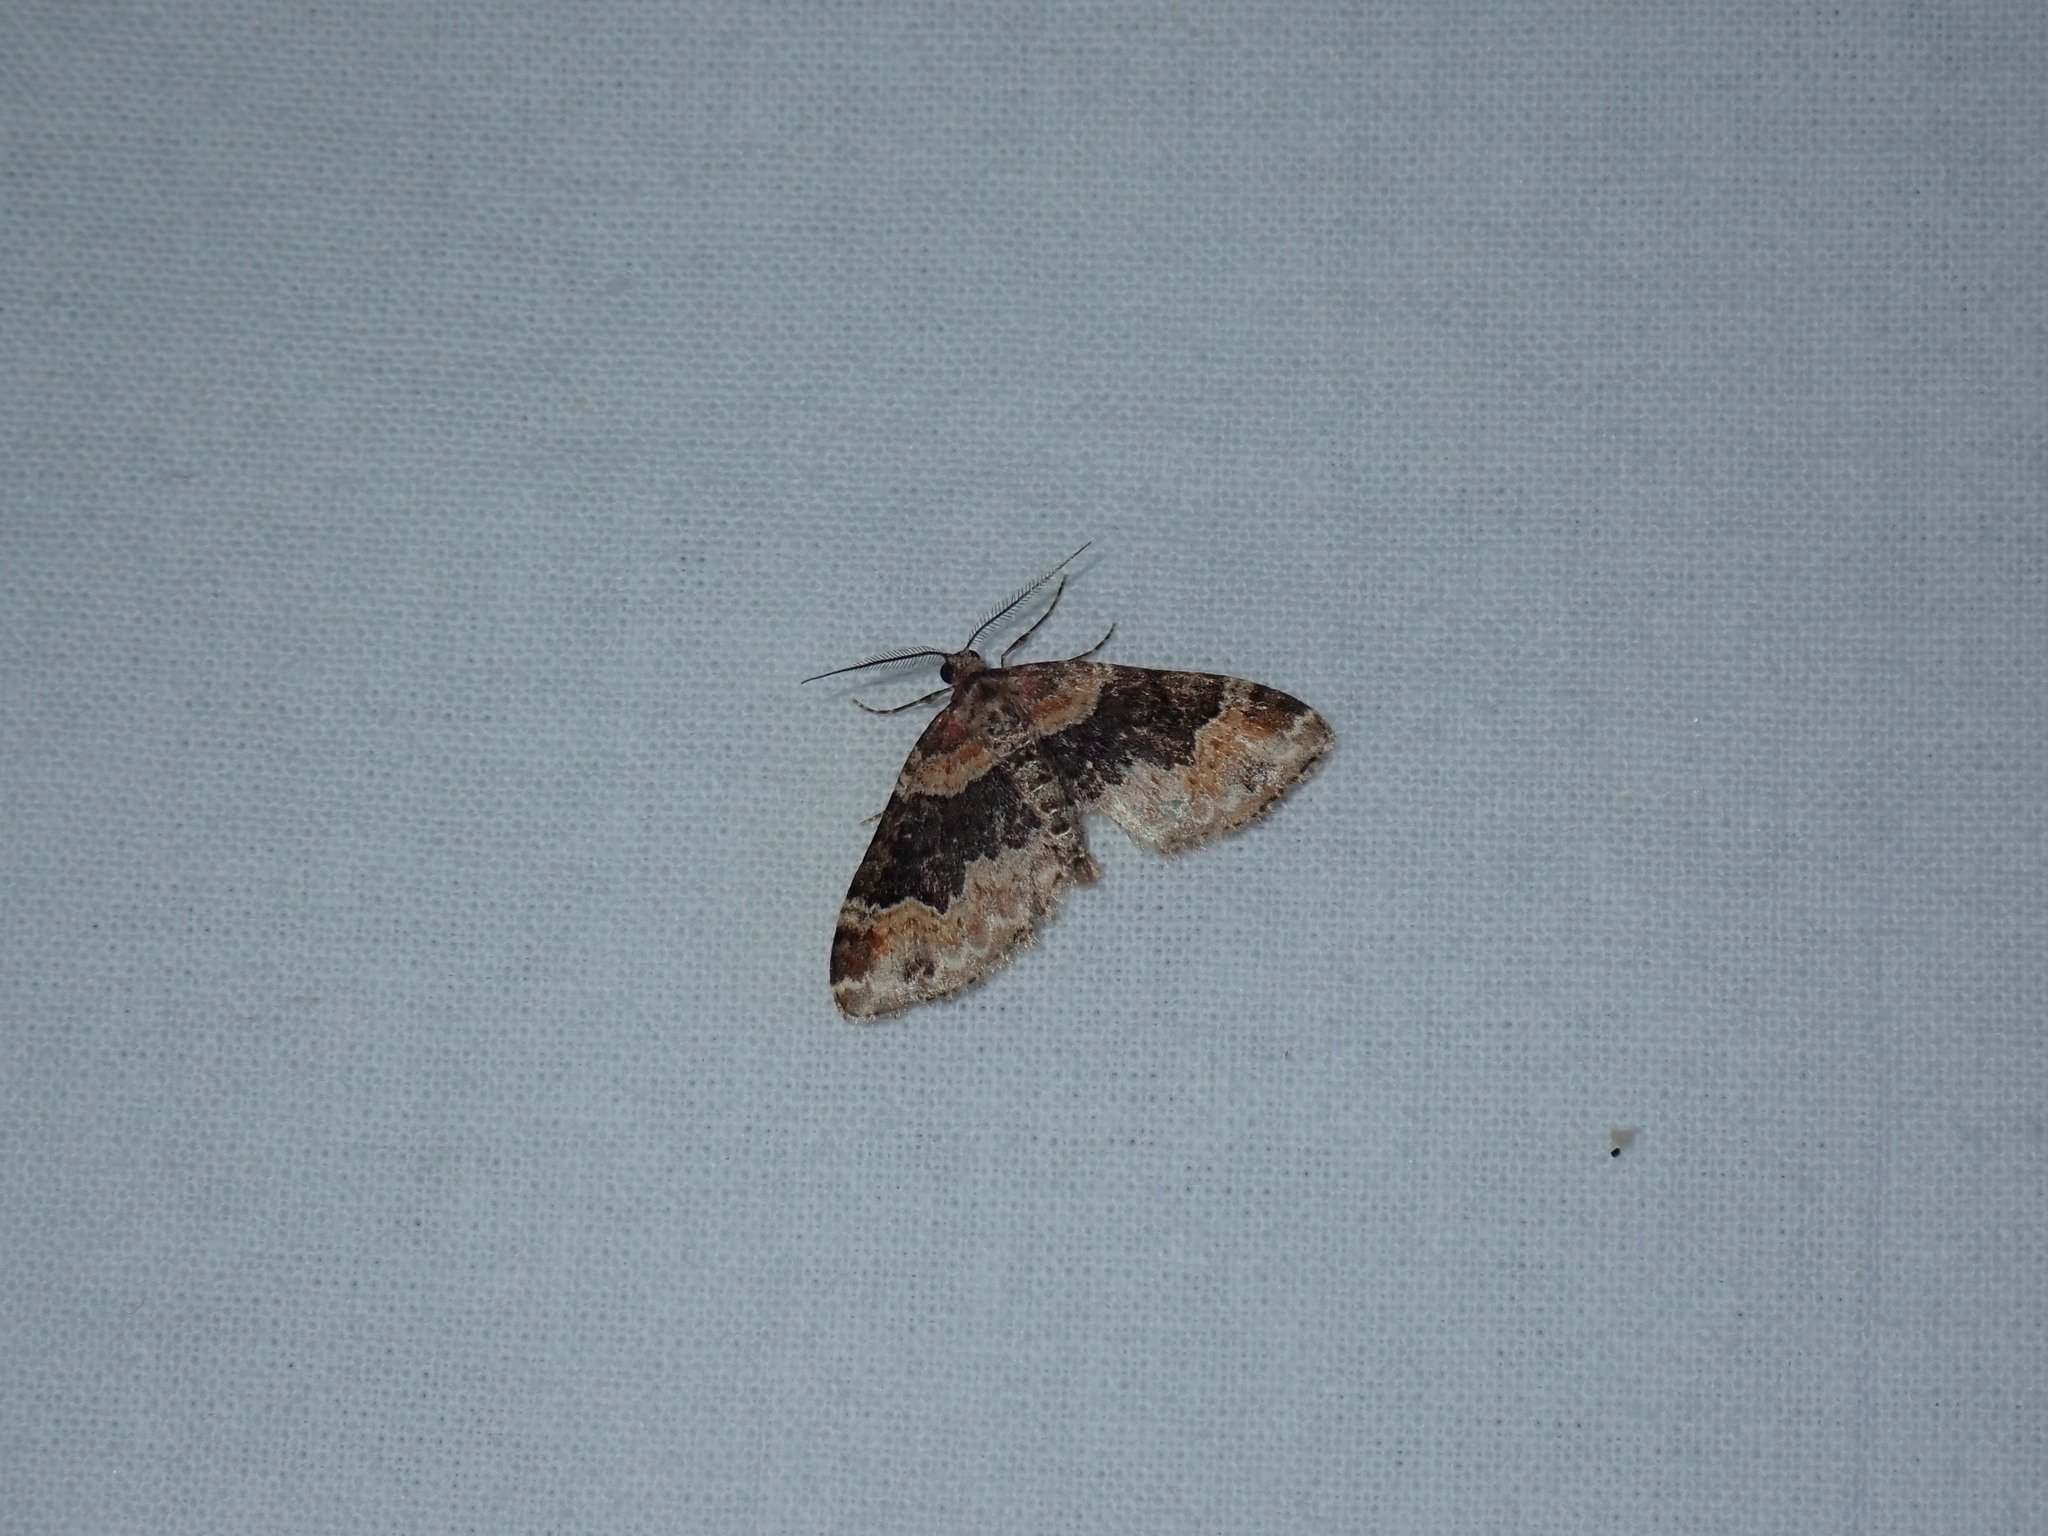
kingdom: Animalia
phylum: Arthropoda
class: Insecta
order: Lepidoptera
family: Geometridae
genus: Xanthorhoe
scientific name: Xanthorhoe lacustrata
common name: Toothed brown carpet
